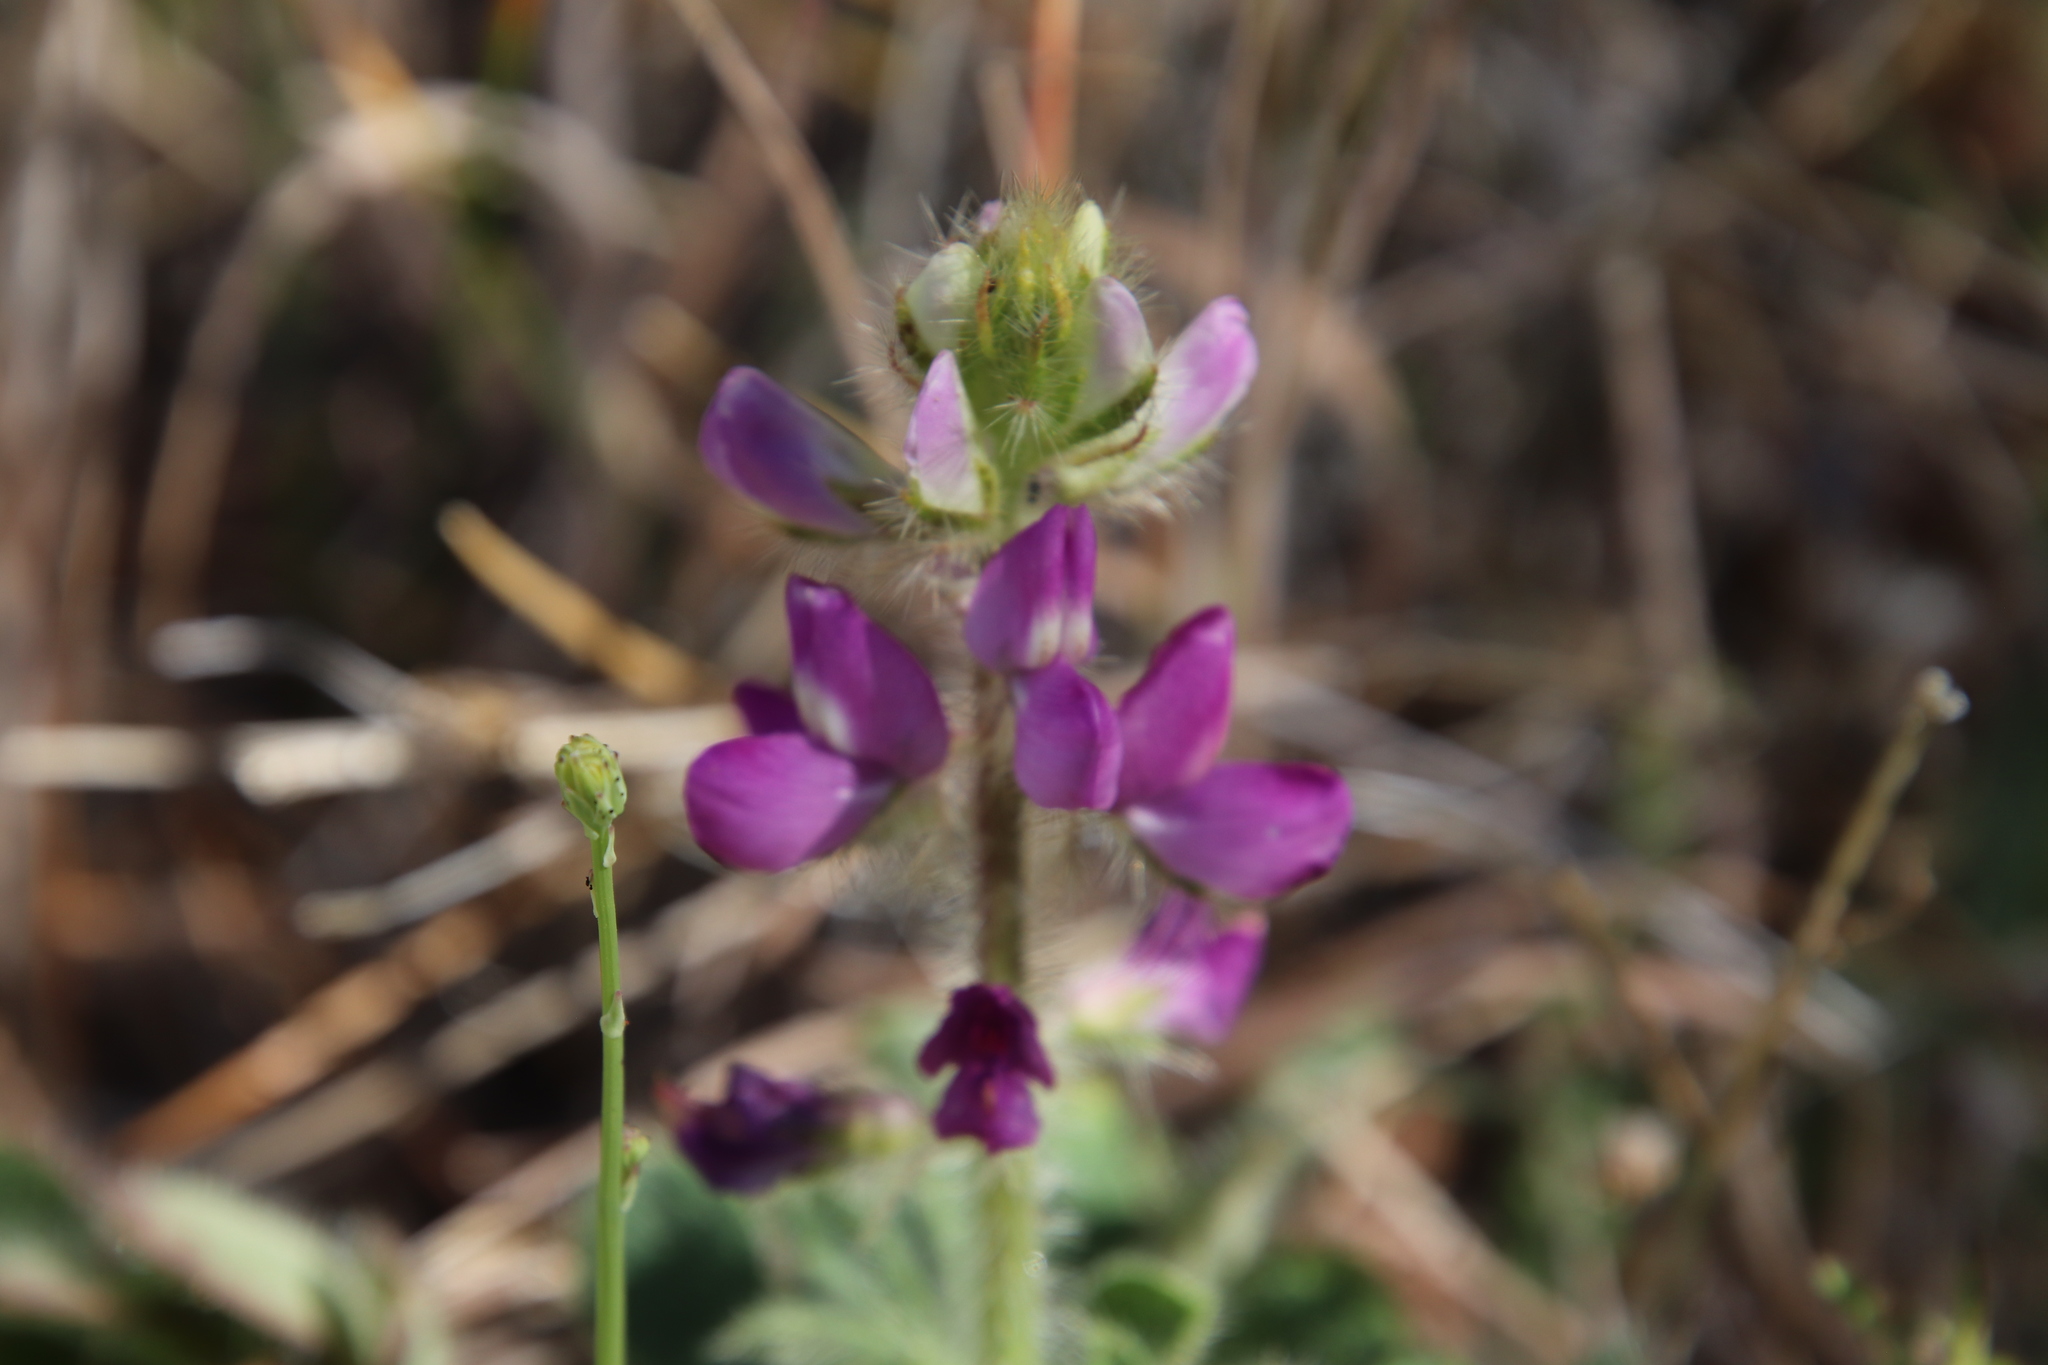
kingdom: Plantae
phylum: Tracheophyta
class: Magnoliopsida
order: Fabales
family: Fabaceae
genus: Lupinus
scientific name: Lupinus hirsutissimus
